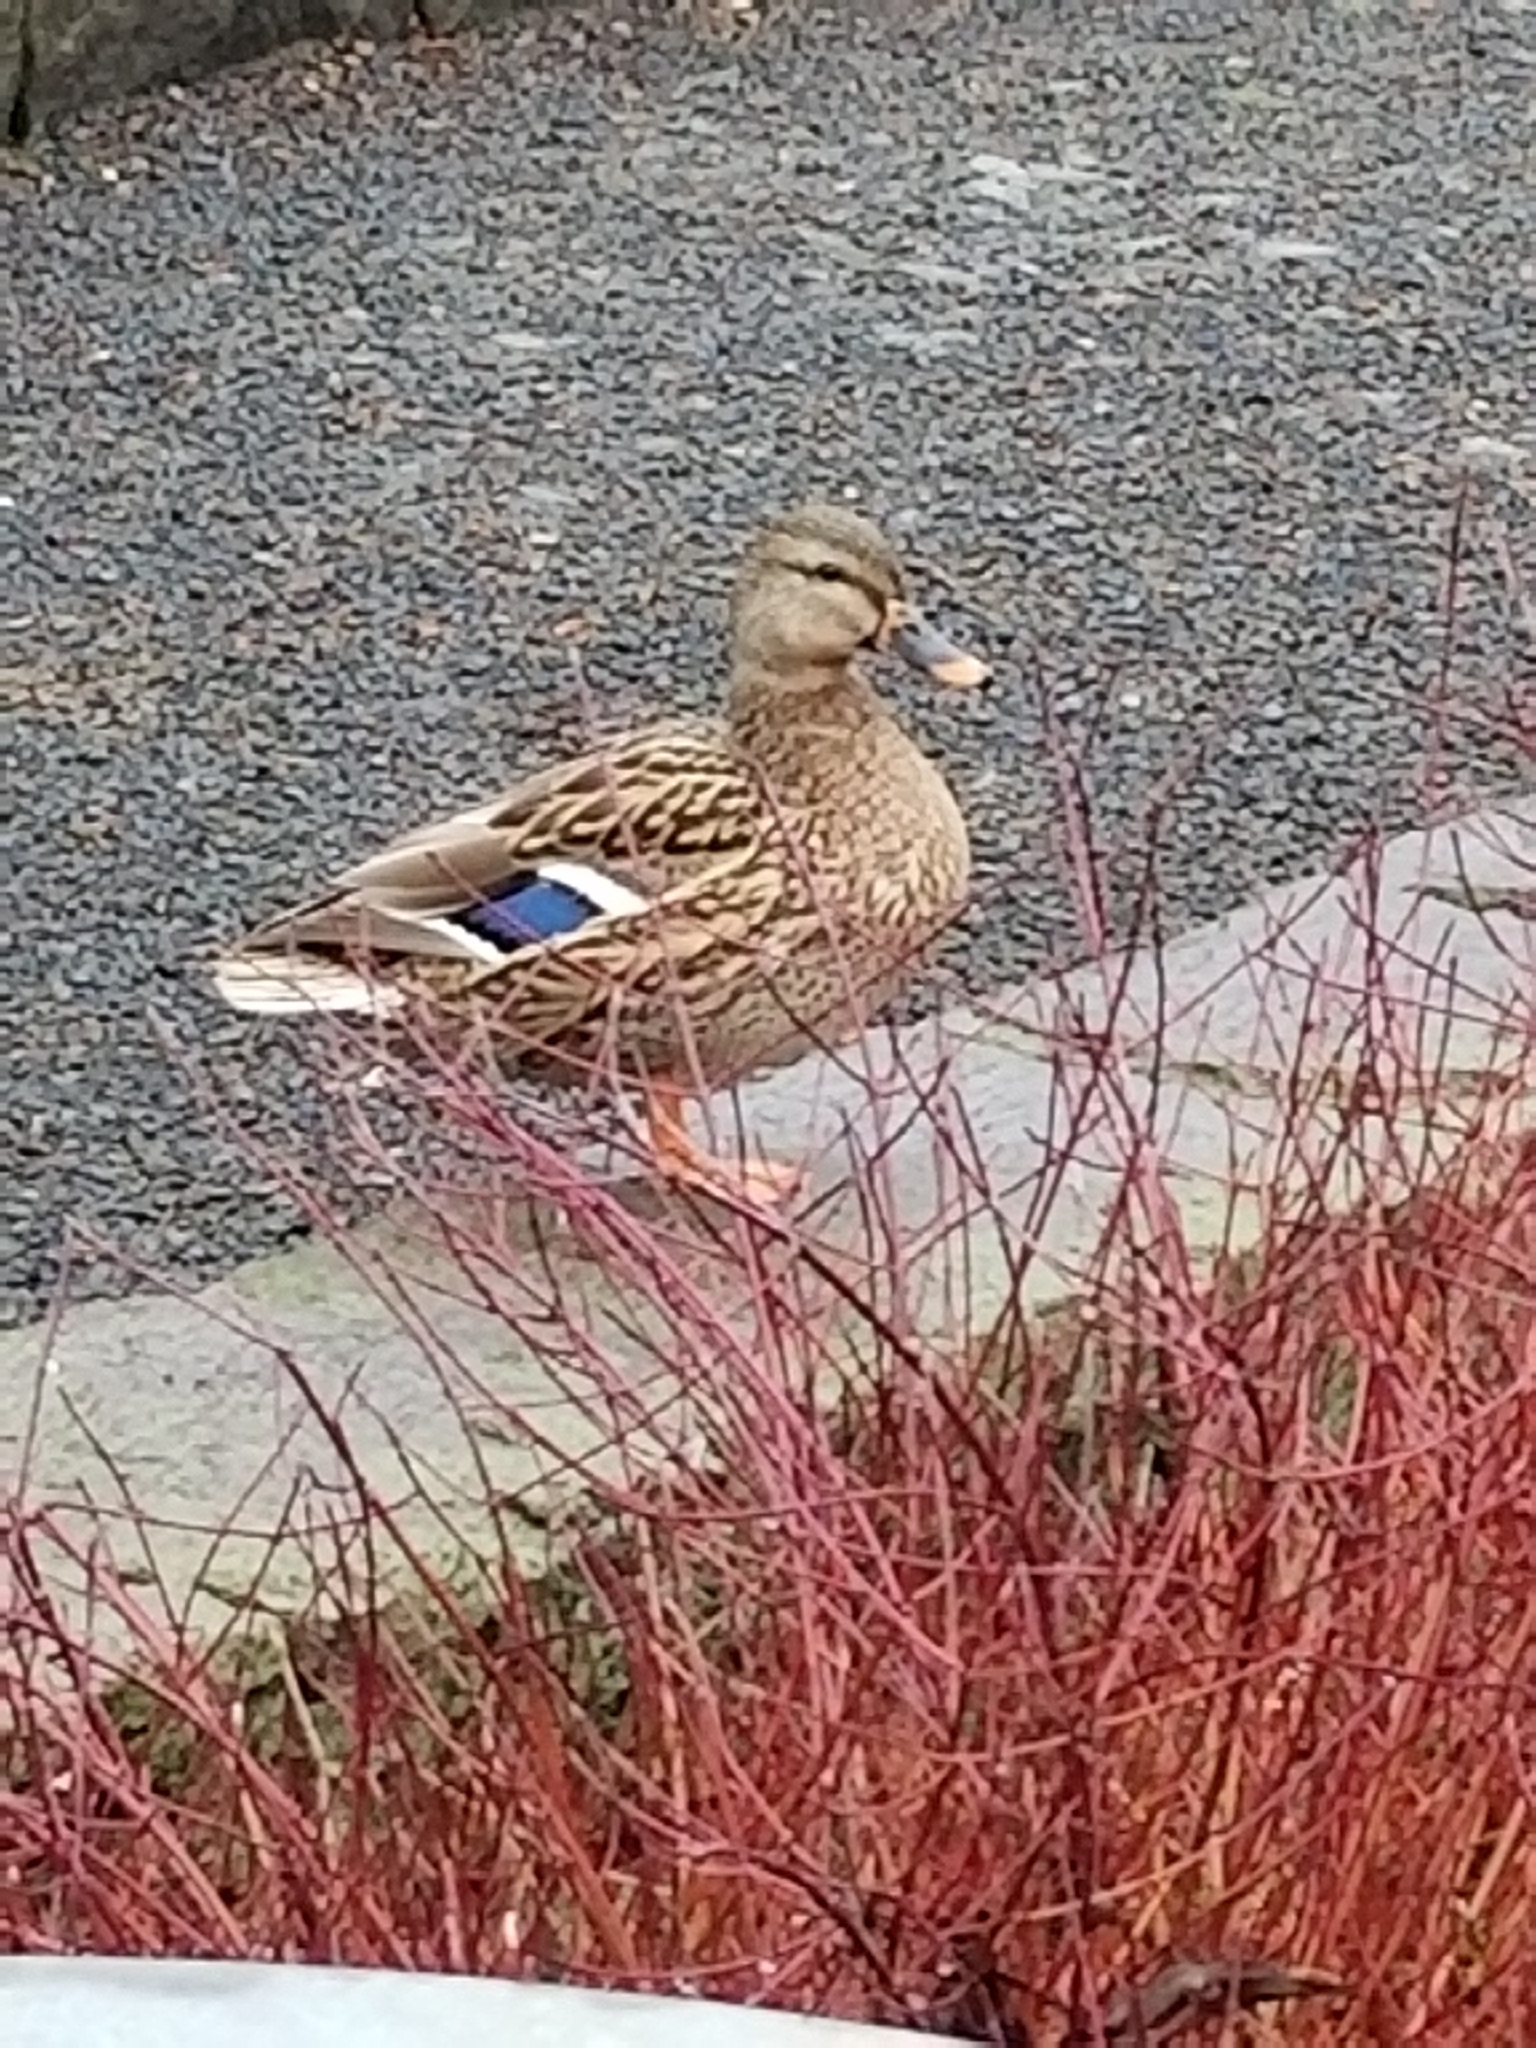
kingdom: Animalia
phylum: Chordata
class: Aves
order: Anseriformes
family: Anatidae
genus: Anas
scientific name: Anas platyrhynchos
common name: Mallard
